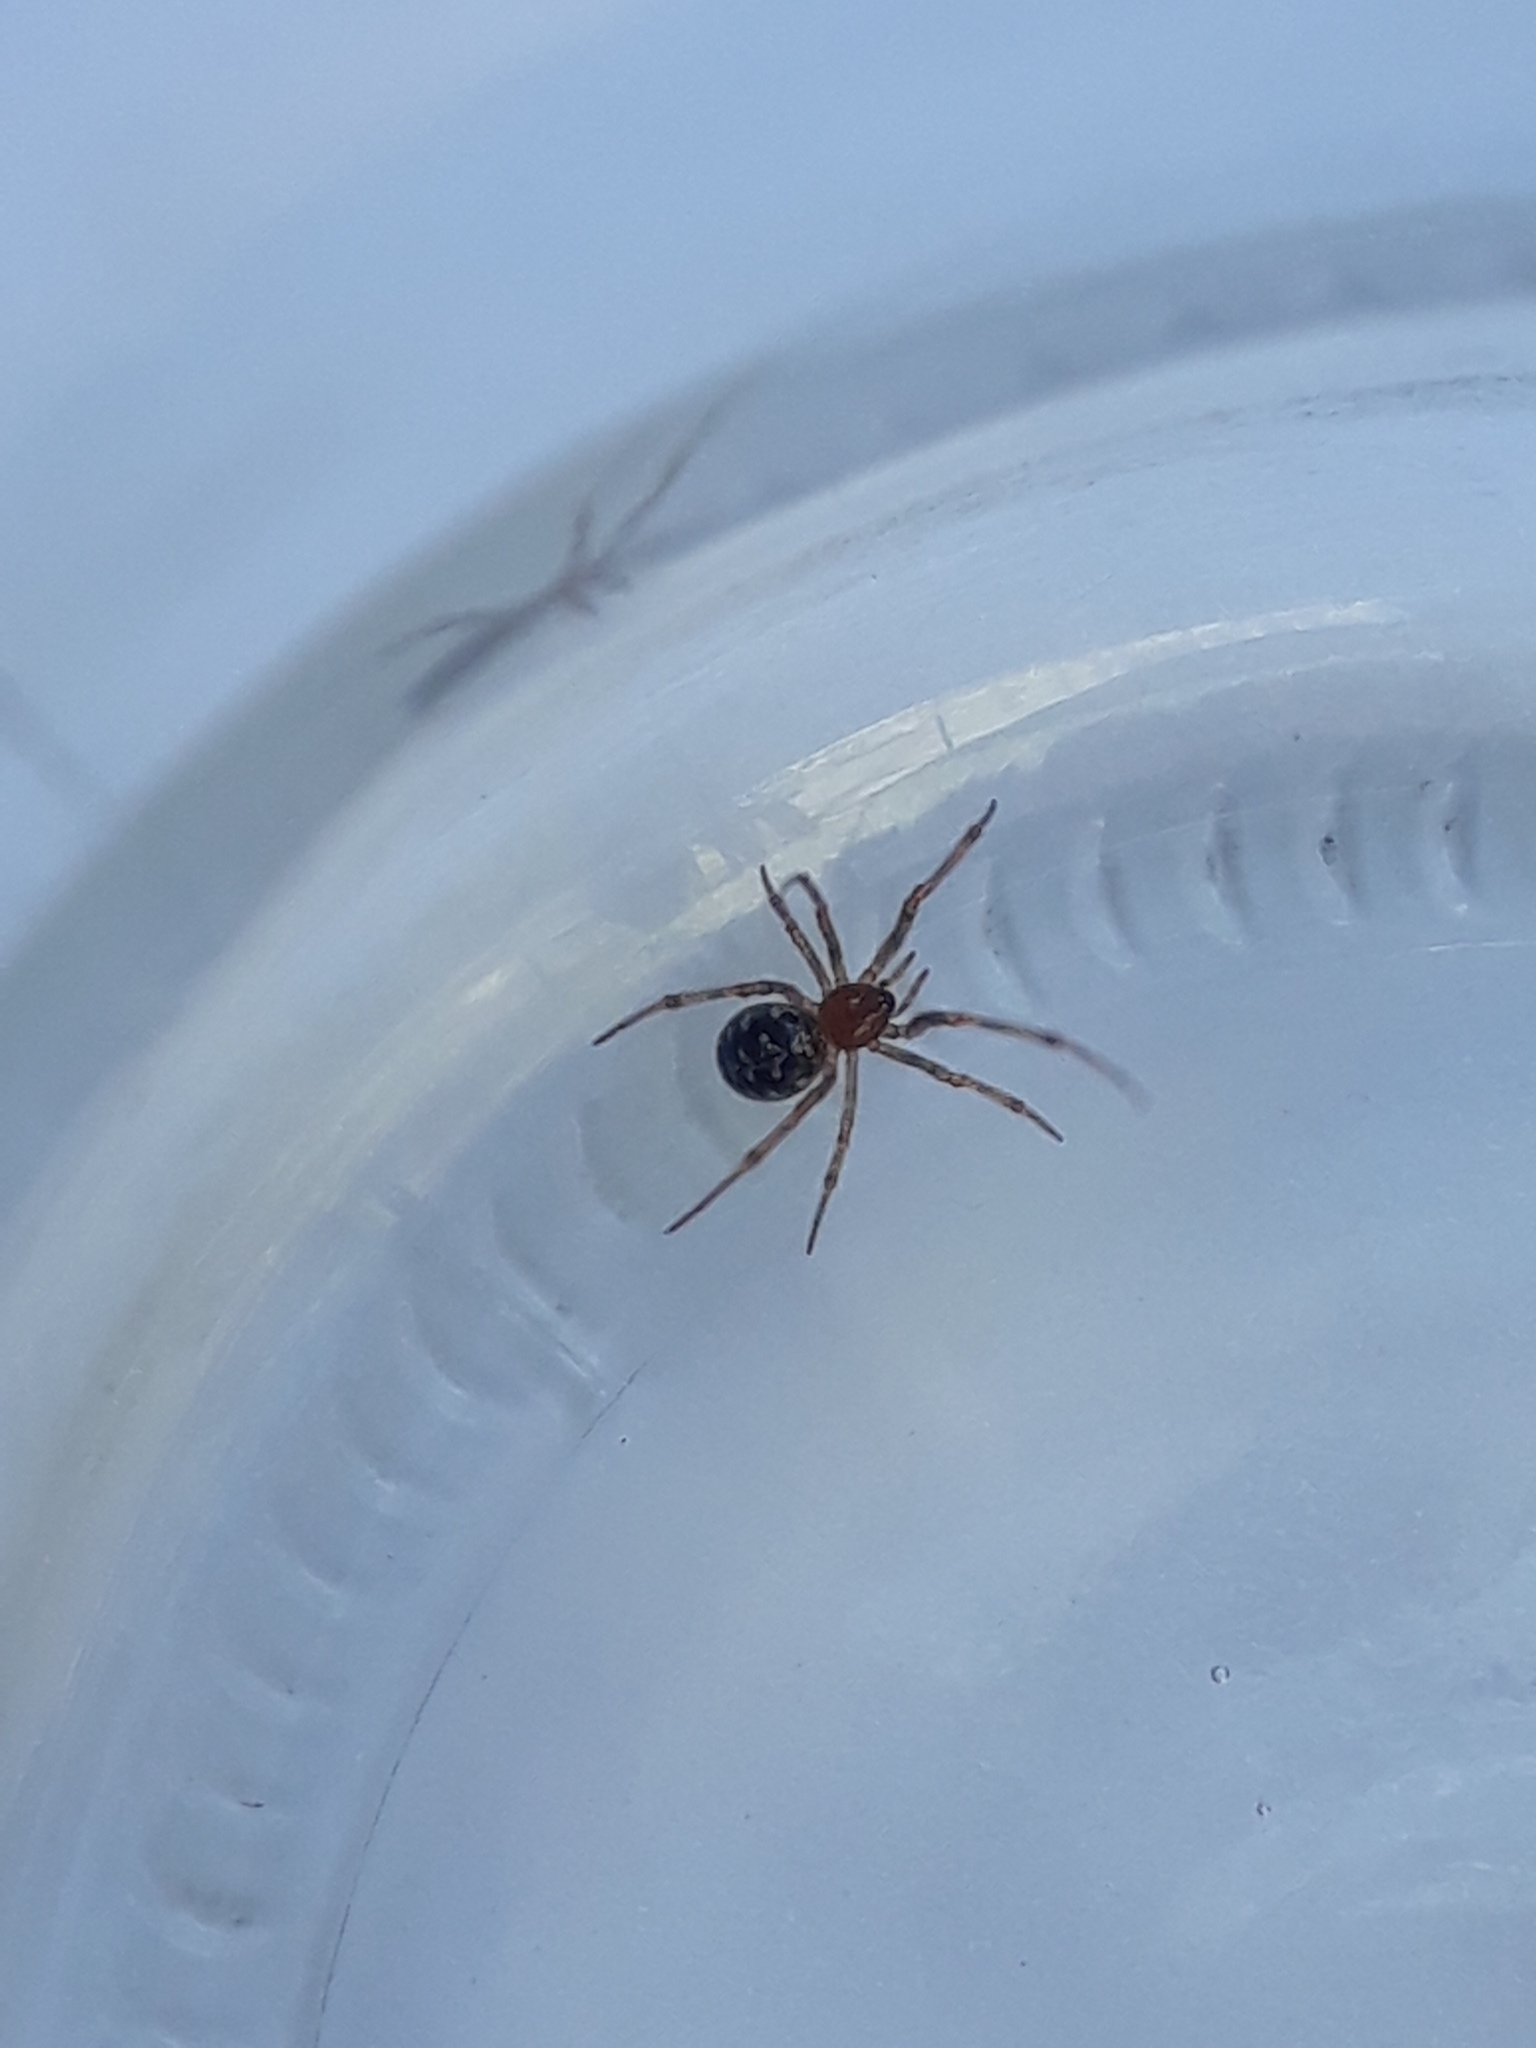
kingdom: Animalia
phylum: Arthropoda
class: Arachnida
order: Araneae
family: Theridiidae
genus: Steatoda
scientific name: Steatoda triangulosa
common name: Triangulate bud spider
